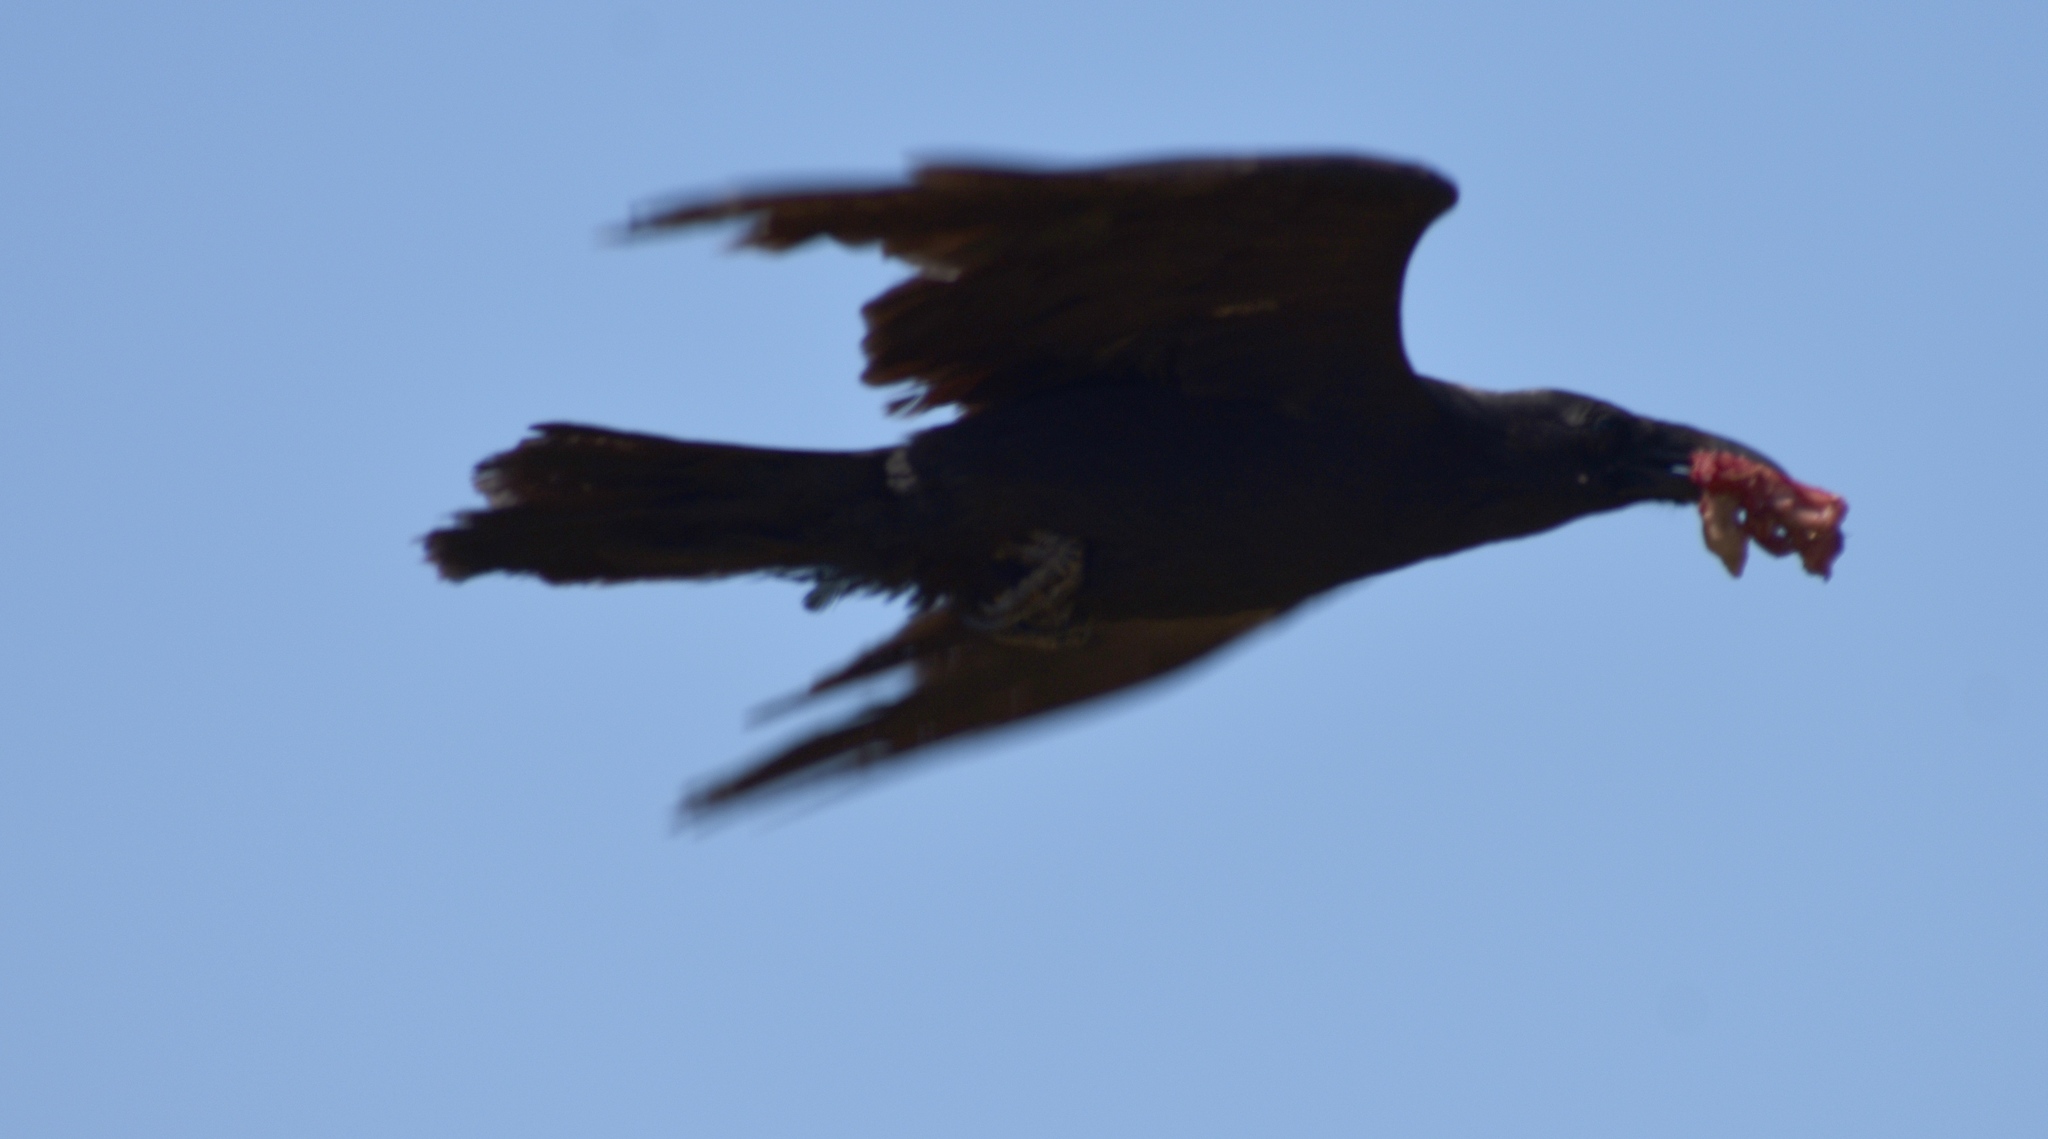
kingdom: Animalia
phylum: Chordata
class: Aves
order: Passeriformes
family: Corvidae
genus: Corvus
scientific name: Corvus brachyrhynchos
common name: American crow
